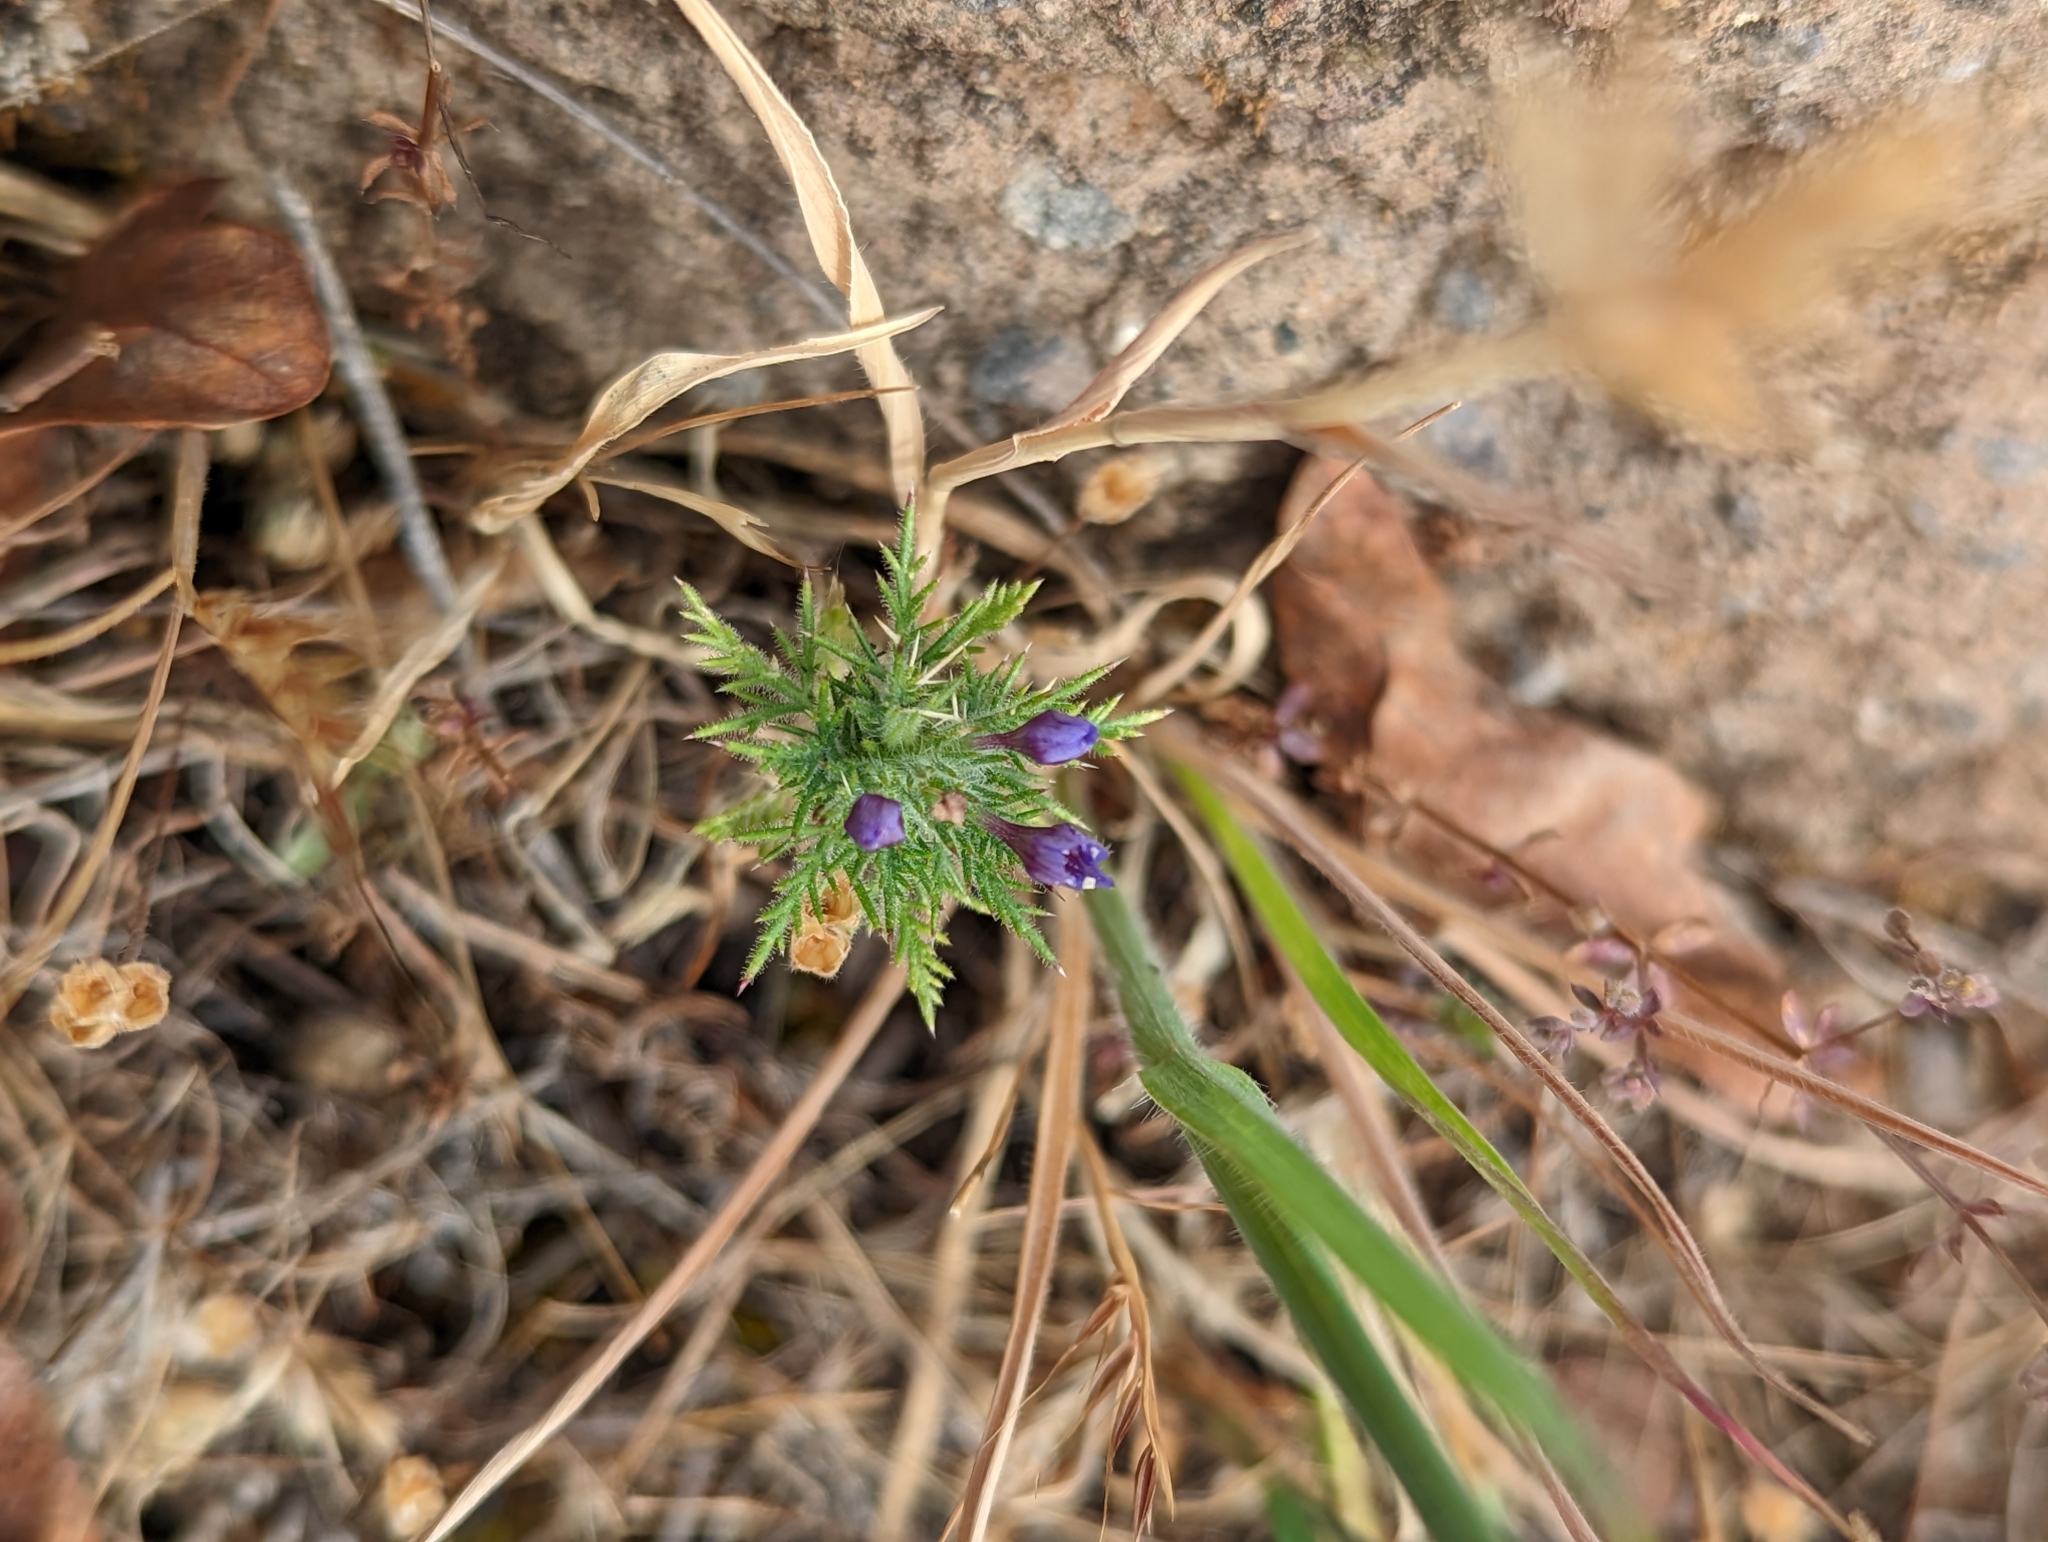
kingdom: Plantae
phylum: Tracheophyta
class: Magnoliopsida
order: Ericales
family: Polemoniaceae
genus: Navarretia
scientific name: Navarretia pubescens
